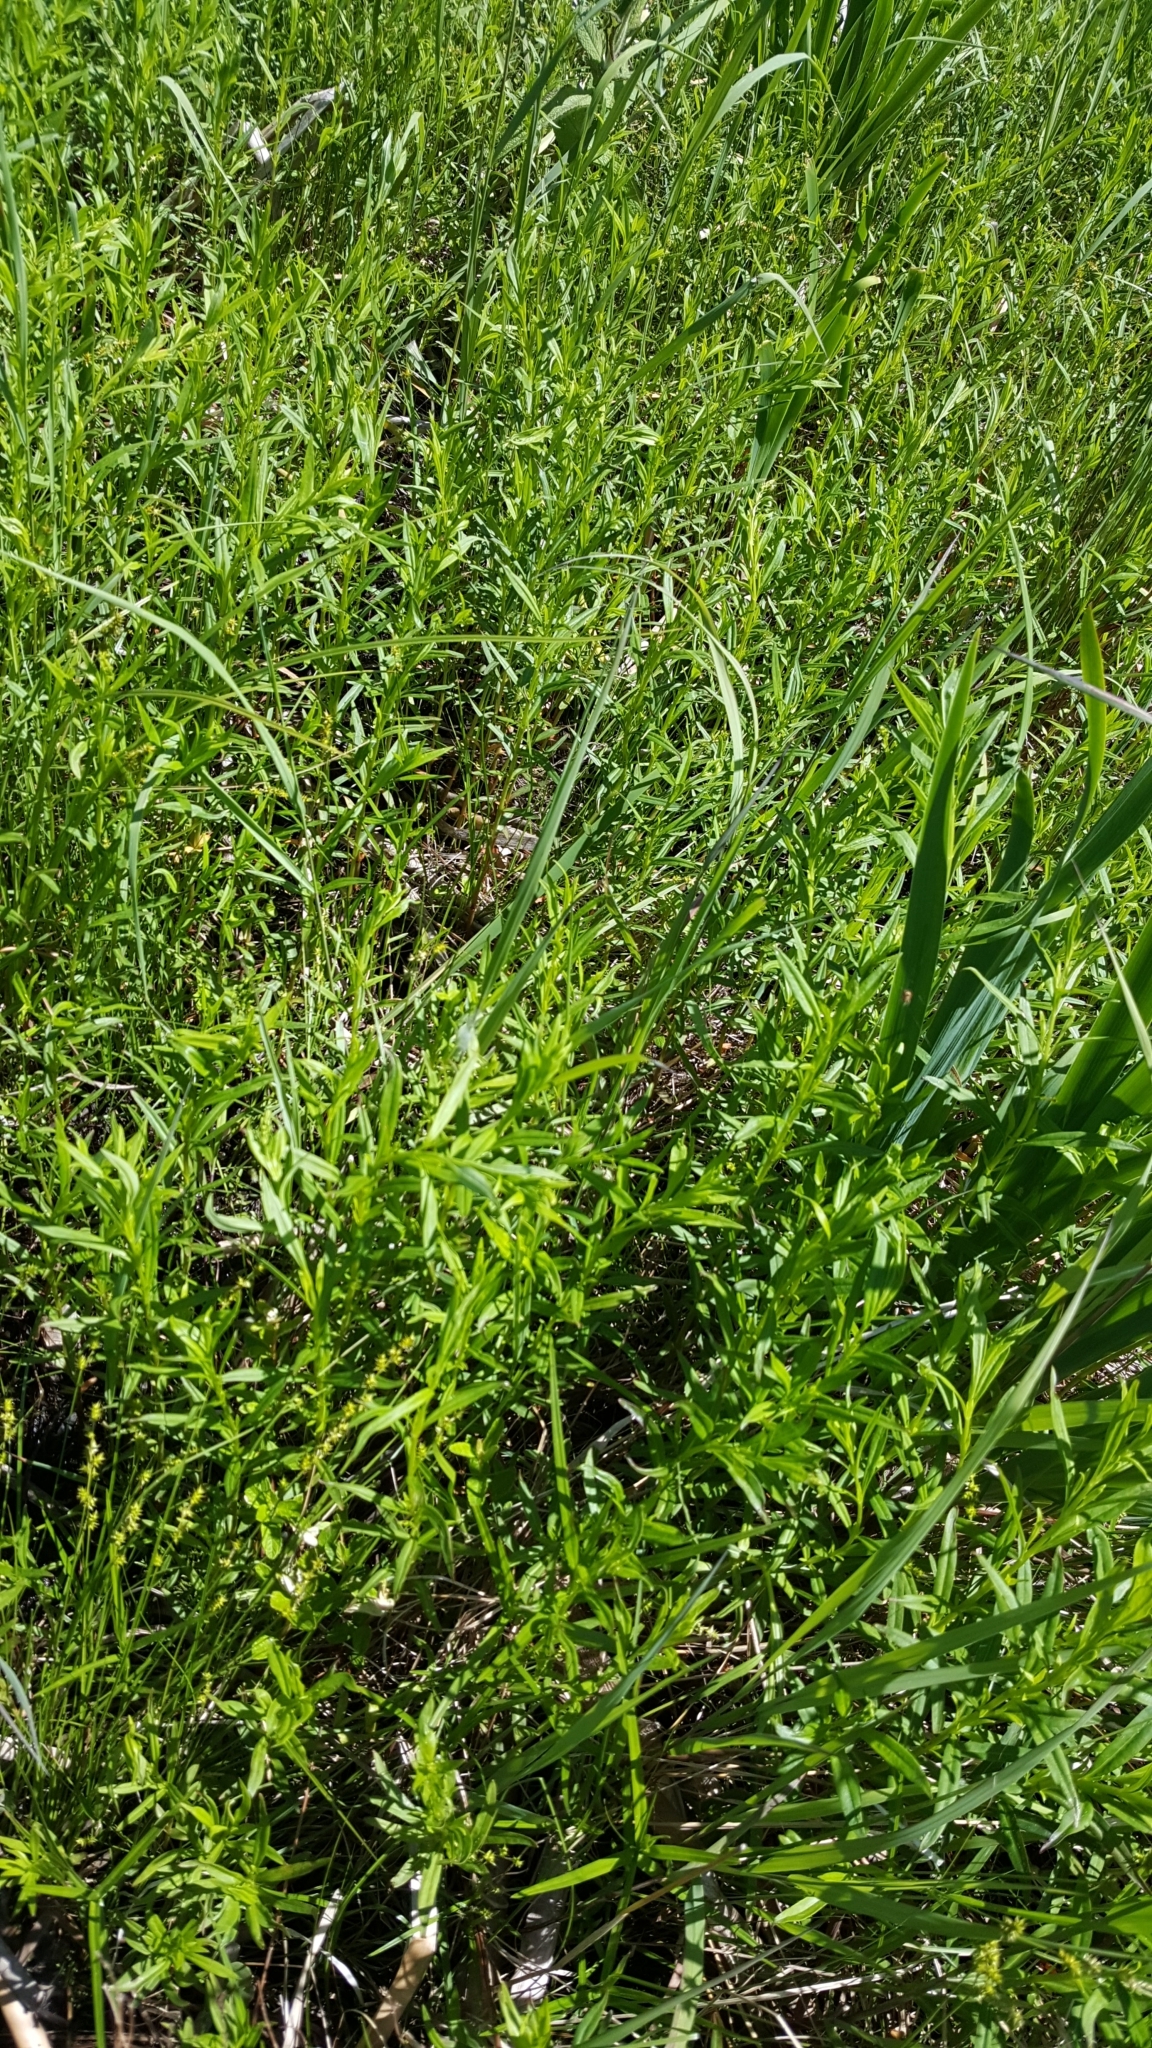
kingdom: Plantae
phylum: Tracheophyta
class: Magnoliopsida
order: Ericales
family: Primulaceae
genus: Lysimachia
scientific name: Lysimachia terrestris
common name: Lake loosestrife
